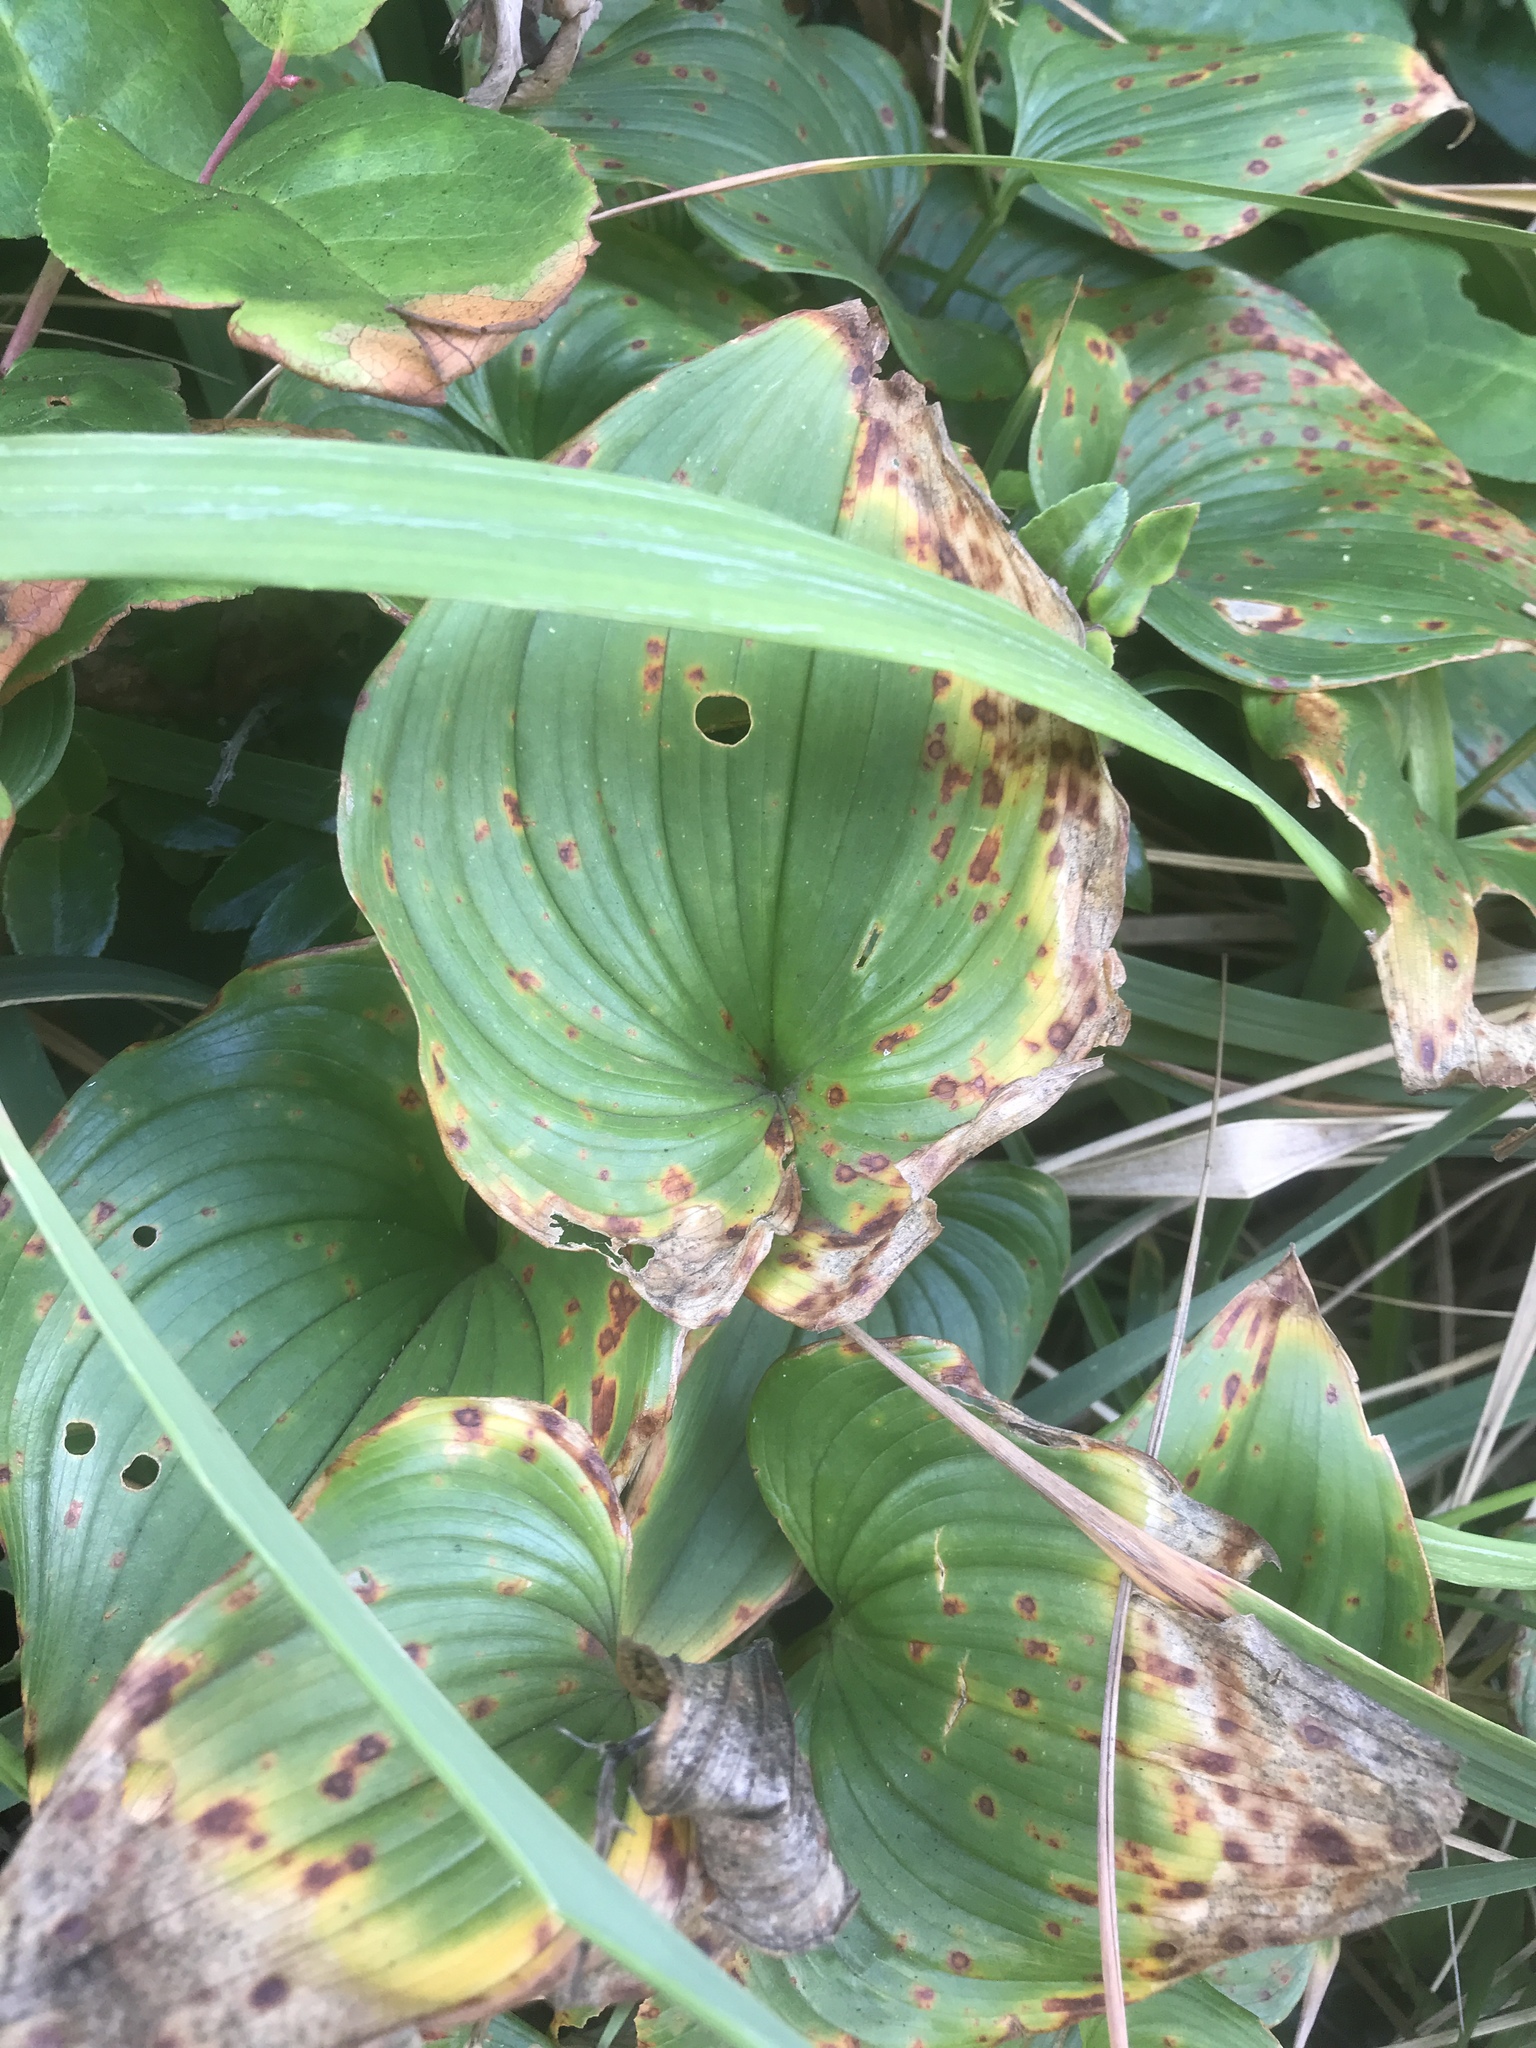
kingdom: Plantae
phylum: Tracheophyta
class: Liliopsida
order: Asparagales
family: Asparagaceae
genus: Maianthemum
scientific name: Maianthemum dilatatum
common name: False lily-of-the-valley
